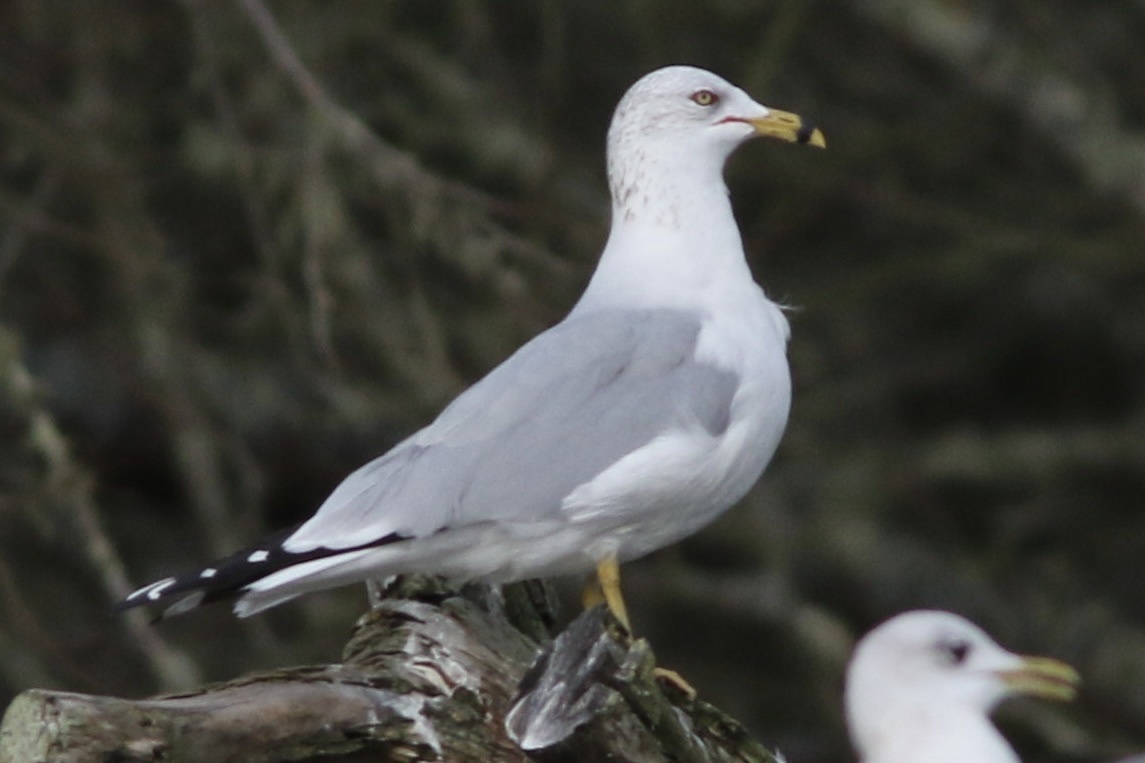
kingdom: Animalia
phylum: Chordata
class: Aves
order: Charadriiformes
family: Laridae
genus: Larus
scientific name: Larus delawarensis
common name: Ring-billed gull
